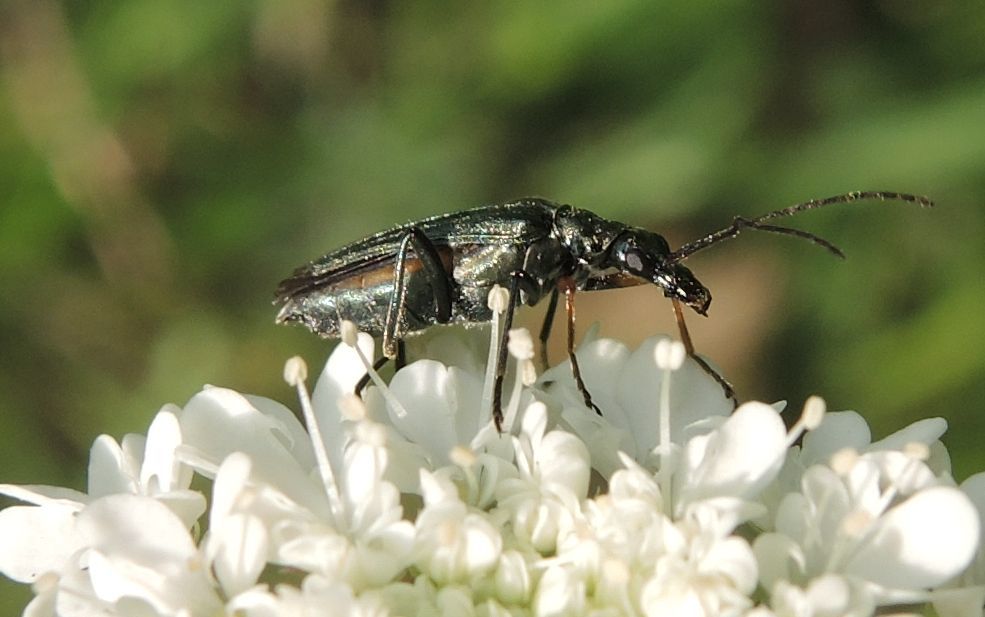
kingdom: Animalia
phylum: Arthropoda
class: Insecta
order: Coleoptera
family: Oedemeridae
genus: Oedemera
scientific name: Oedemera flavipes
